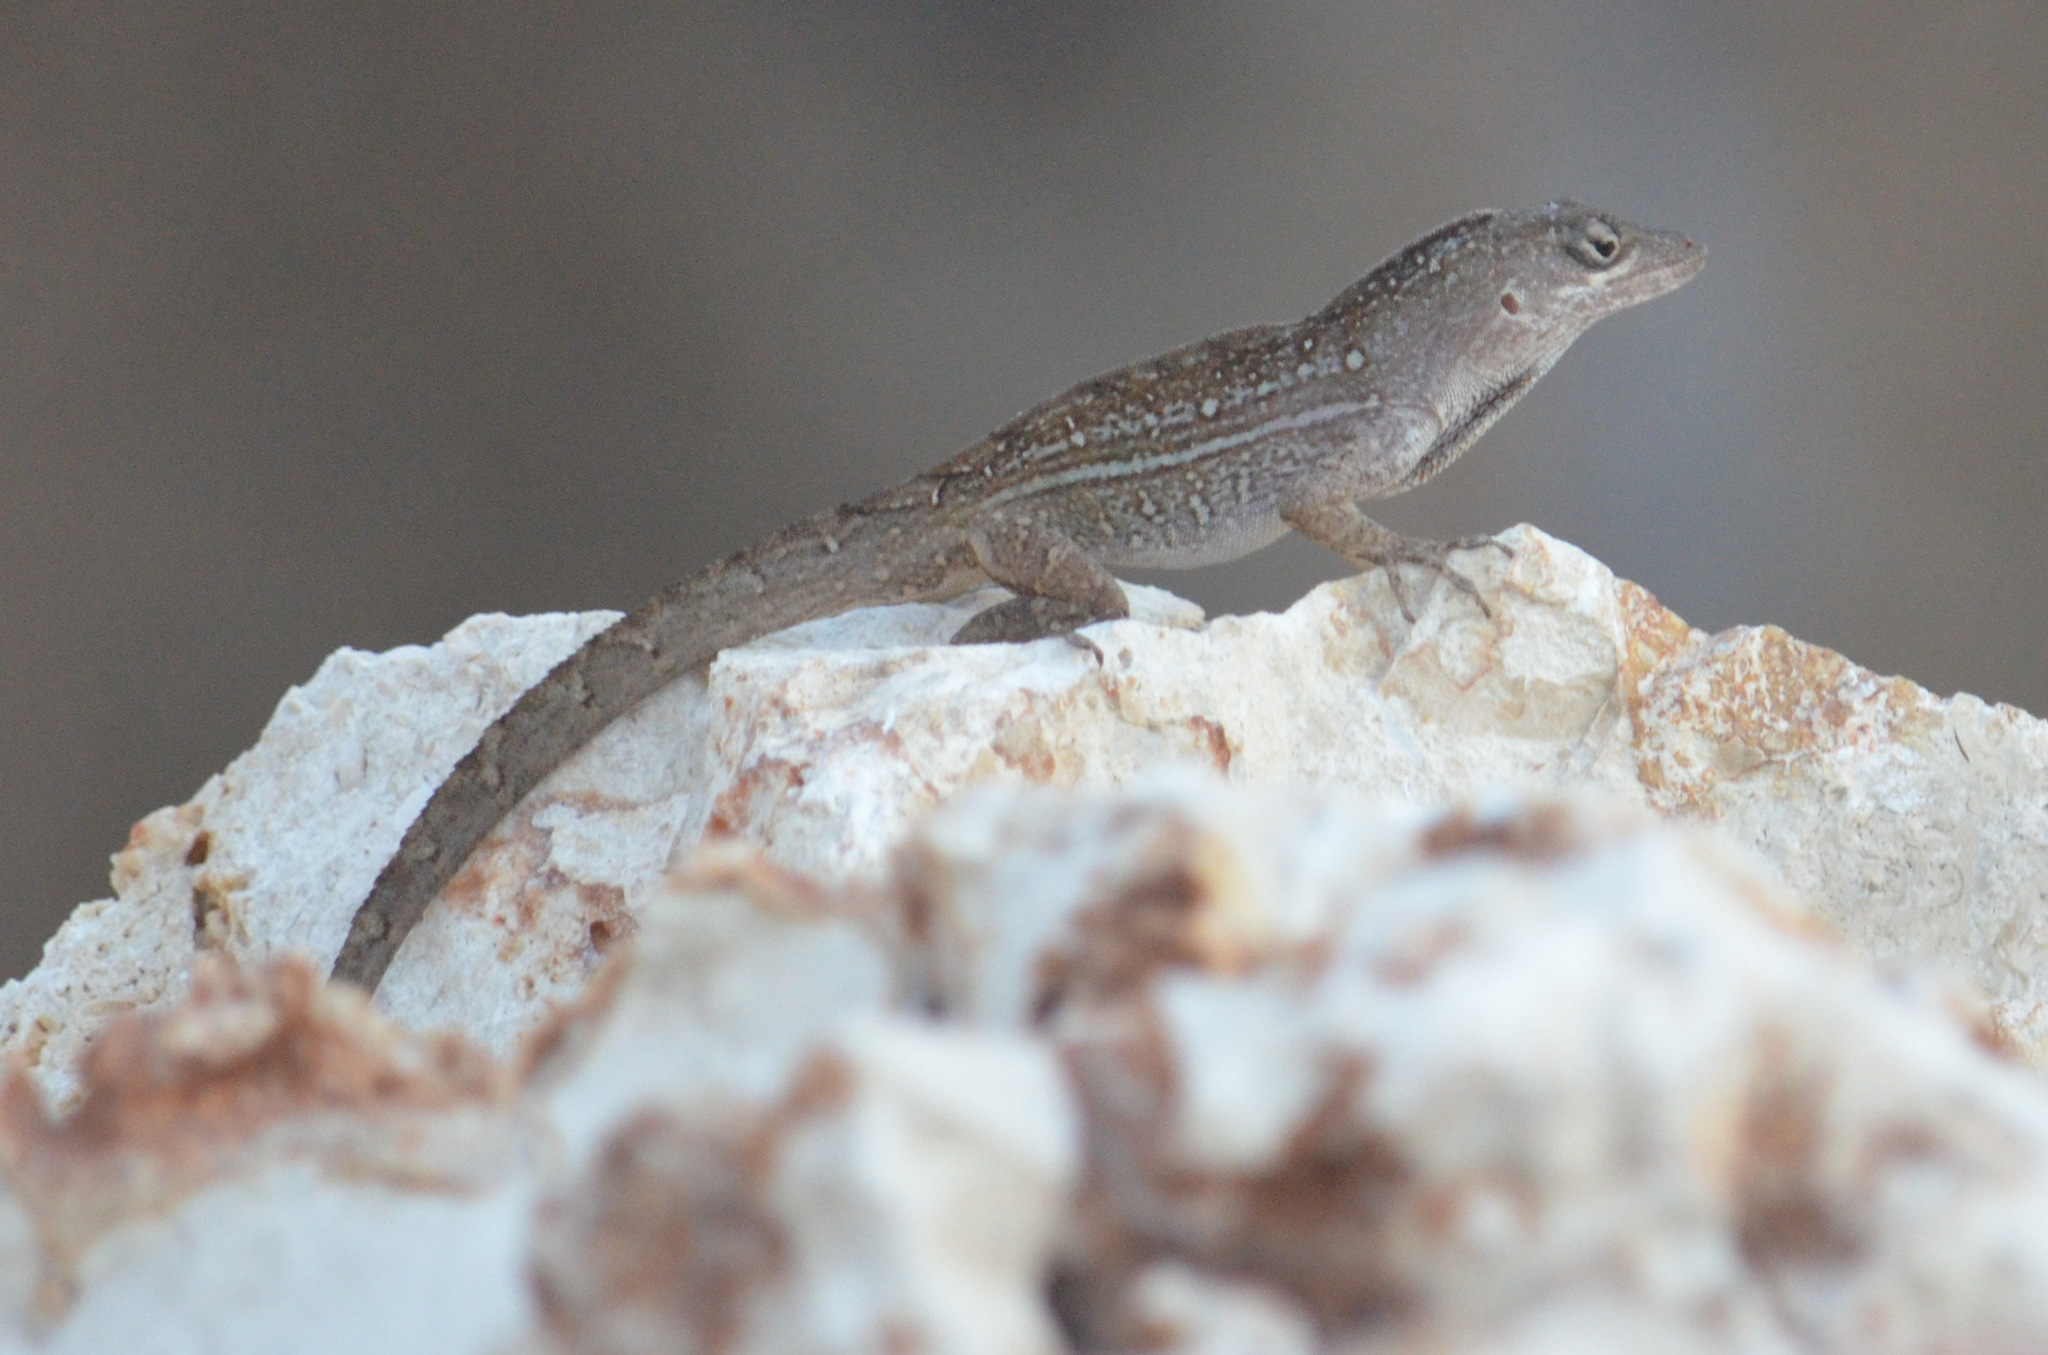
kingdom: Animalia
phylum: Chordata
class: Squamata
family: Dactyloidae
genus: Anolis
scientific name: Anolis sagrei
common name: Brown anole
